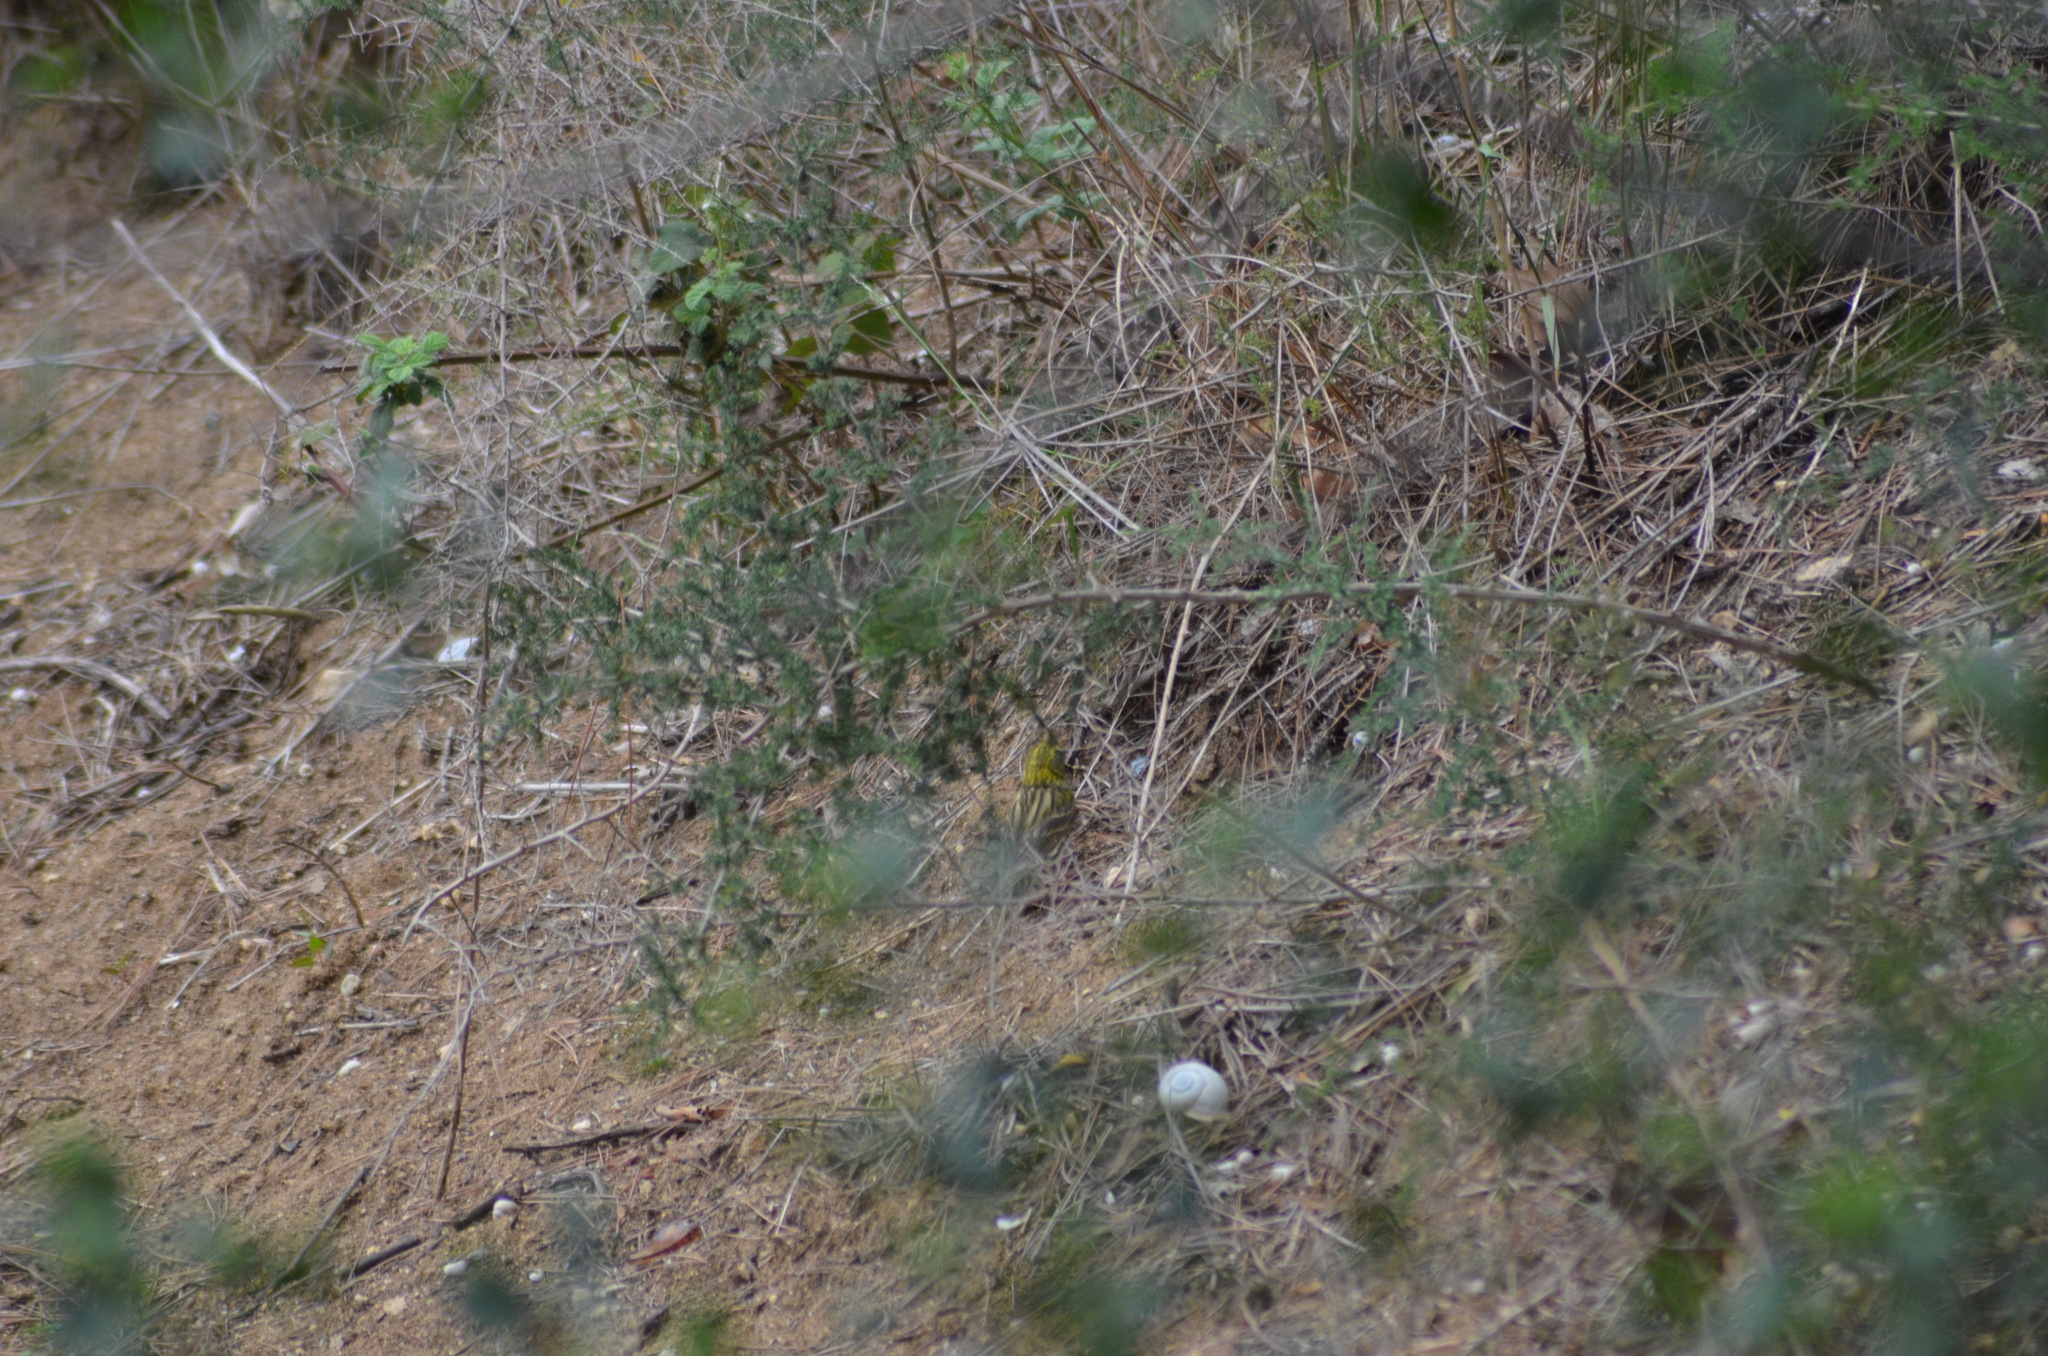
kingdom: Animalia
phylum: Chordata
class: Aves
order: Passeriformes
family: Fringillidae
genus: Serinus
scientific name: Serinus serinus
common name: European serin
